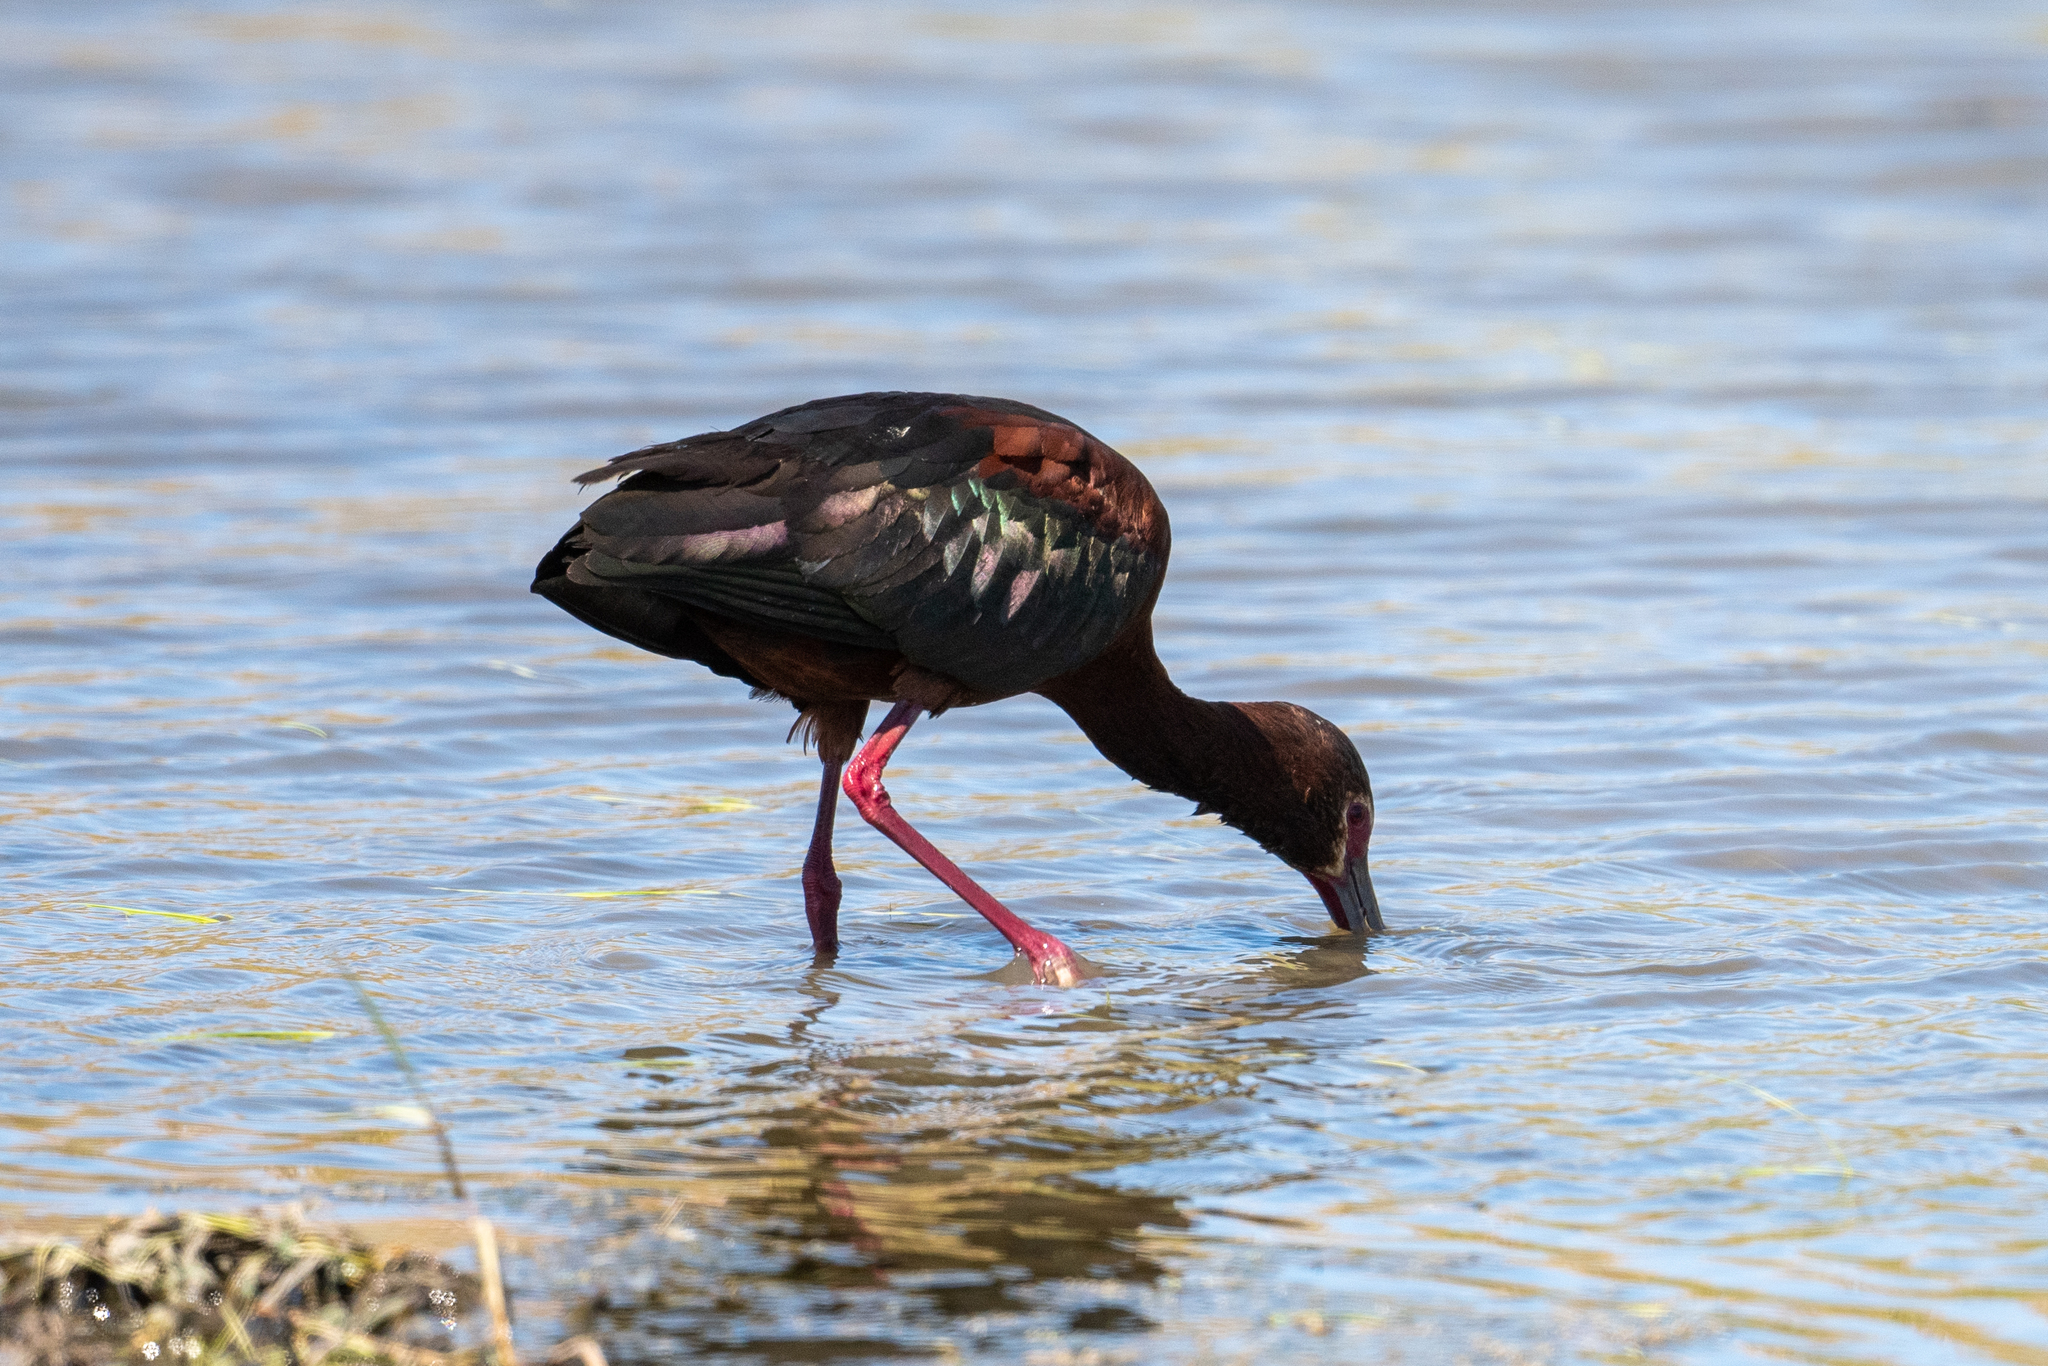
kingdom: Animalia
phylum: Chordata
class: Aves
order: Pelecaniformes
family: Threskiornithidae
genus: Plegadis
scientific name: Plegadis chihi
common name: White-faced ibis
